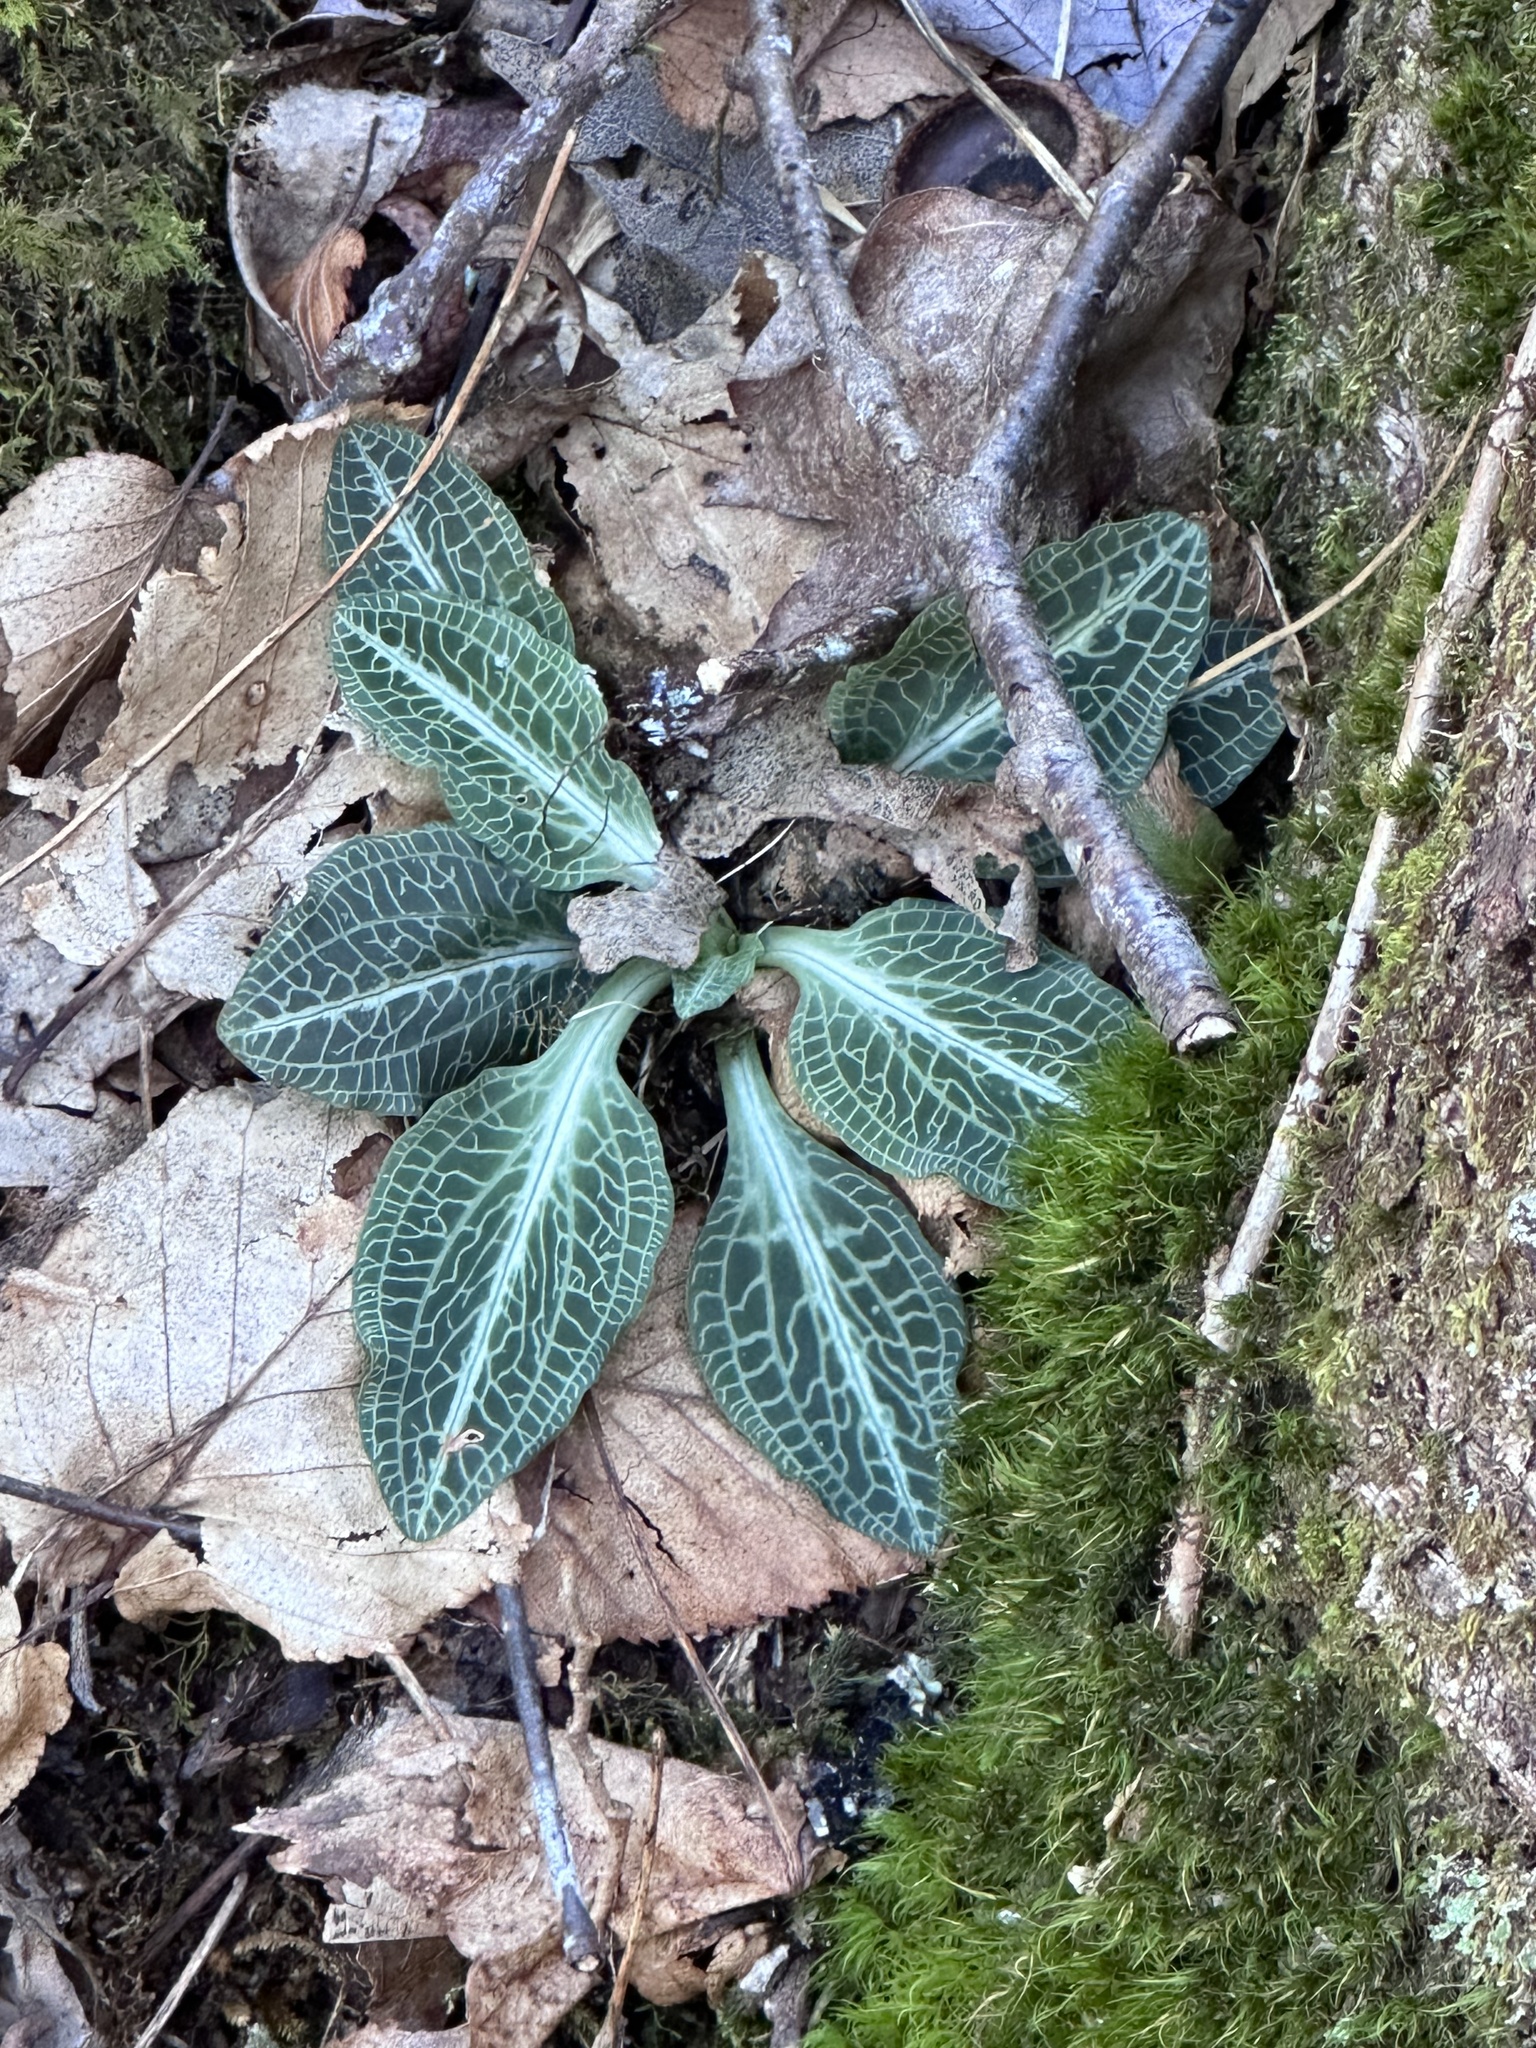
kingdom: Plantae
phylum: Tracheophyta
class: Liliopsida
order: Asparagales
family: Orchidaceae
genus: Goodyera
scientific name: Goodyera pubescens
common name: Downy rattlesnake-plantain
